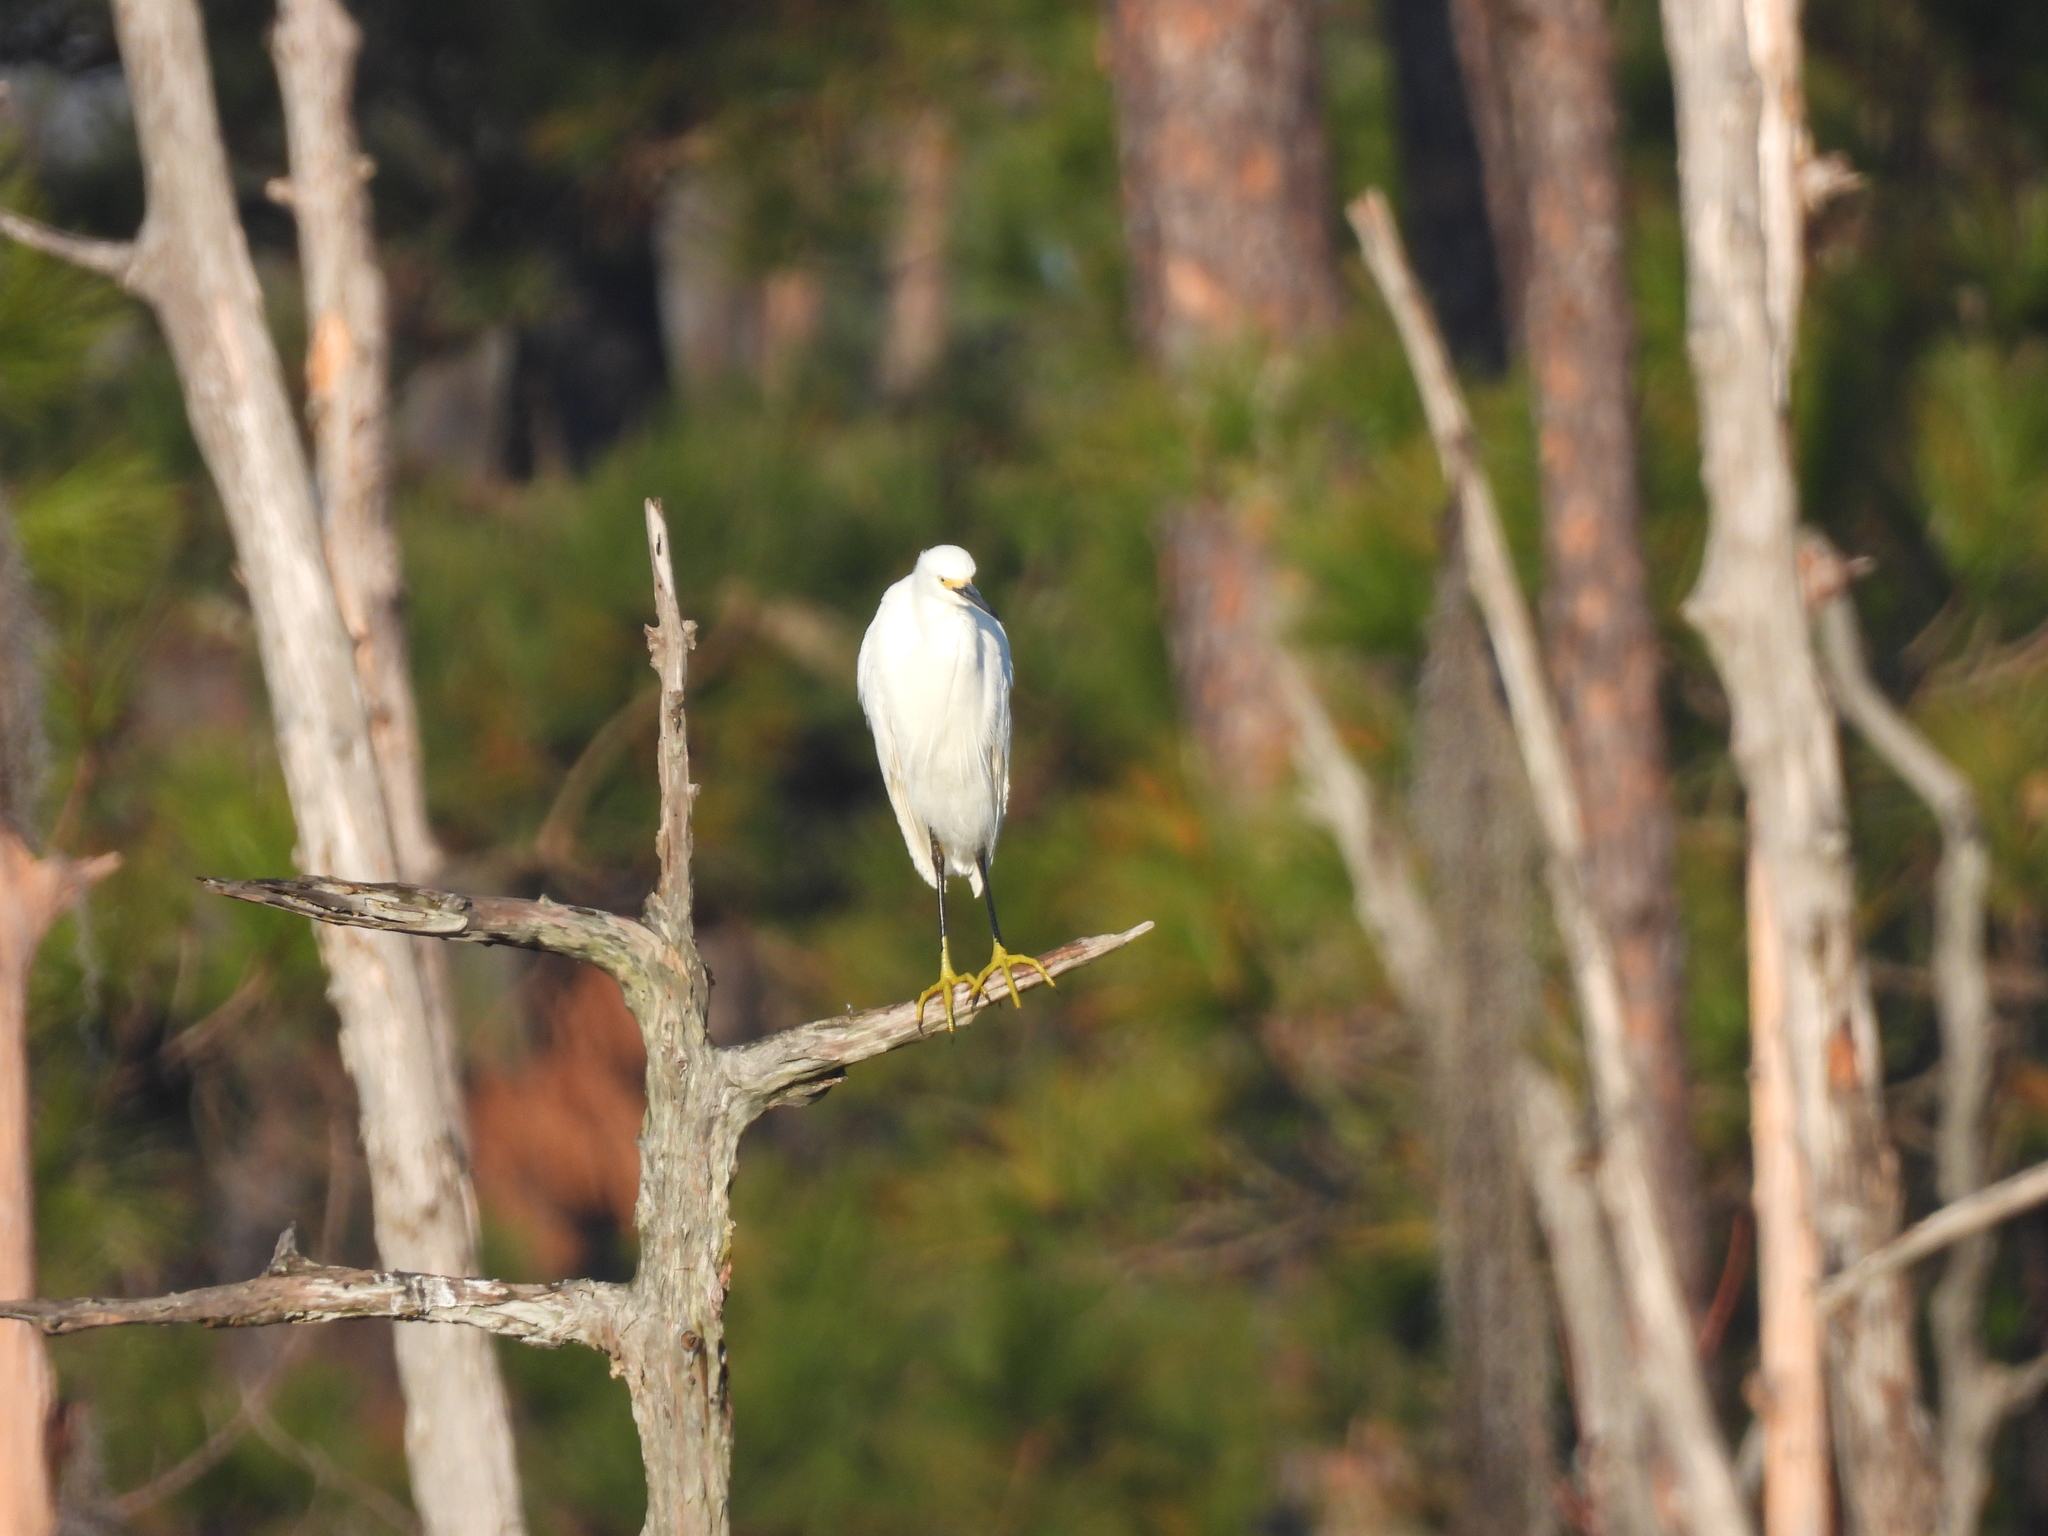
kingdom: Animalia
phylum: Chordata
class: Aves
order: Pelecaniformes
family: Ardeidae
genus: Egretta
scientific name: Egretta thula
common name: Snowy egret
